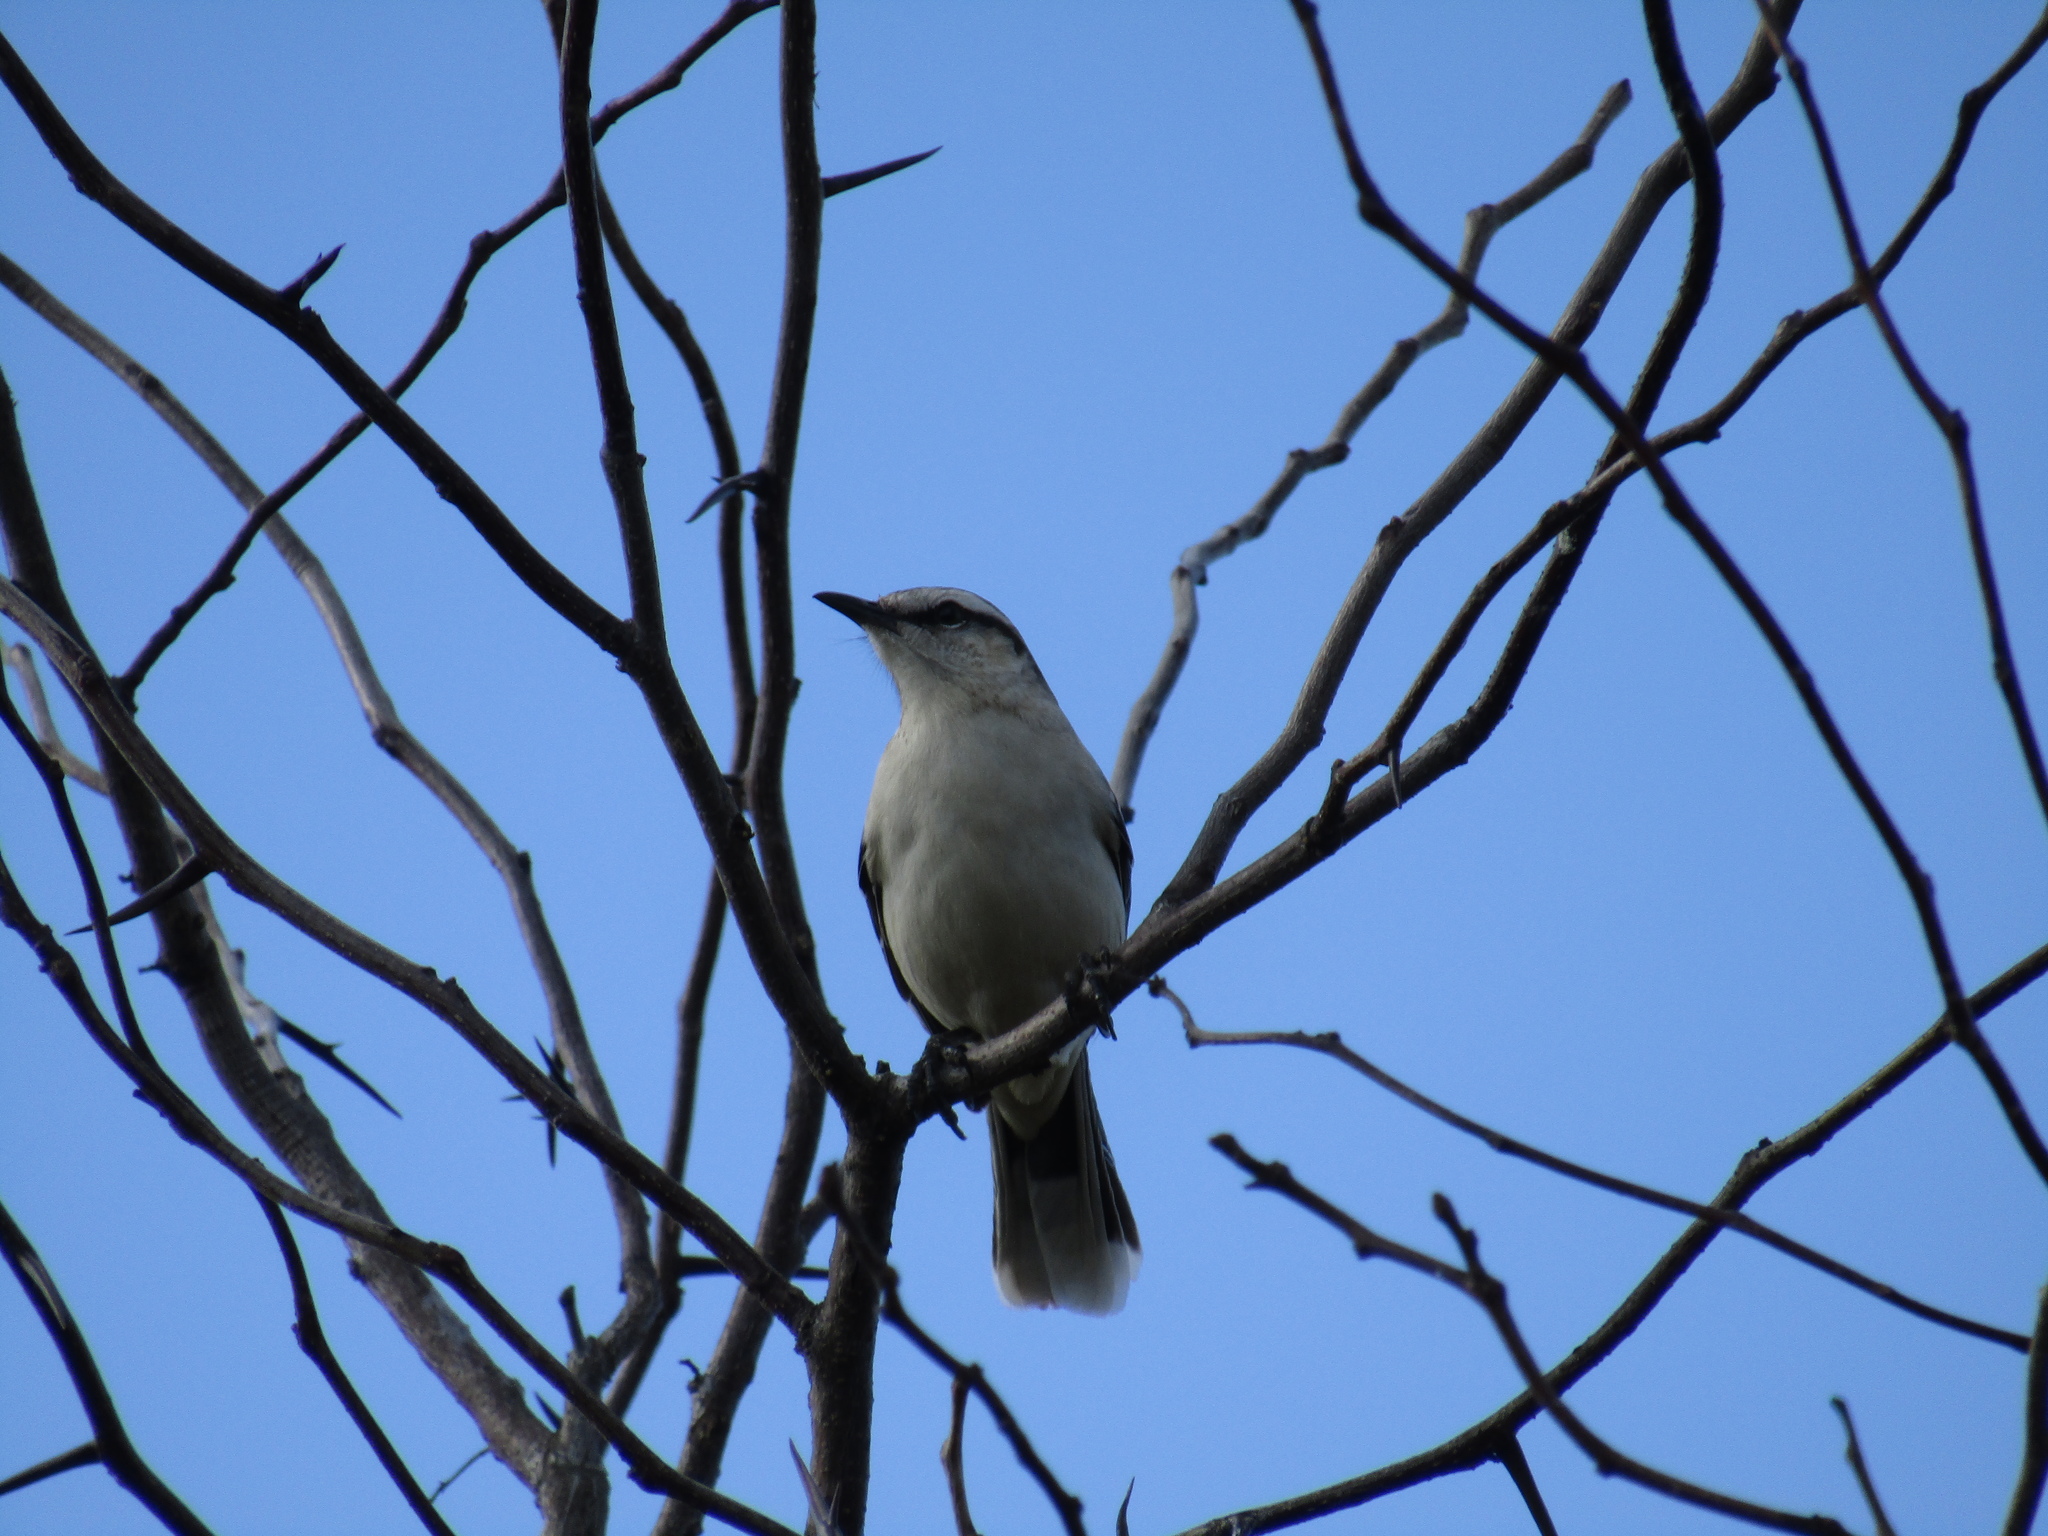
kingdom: Animalia
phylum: Chordata
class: Aves
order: Passeriformes
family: Mimidae
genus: Mimus
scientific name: Mimus saturninus
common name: Chalk-browed mockingbird
